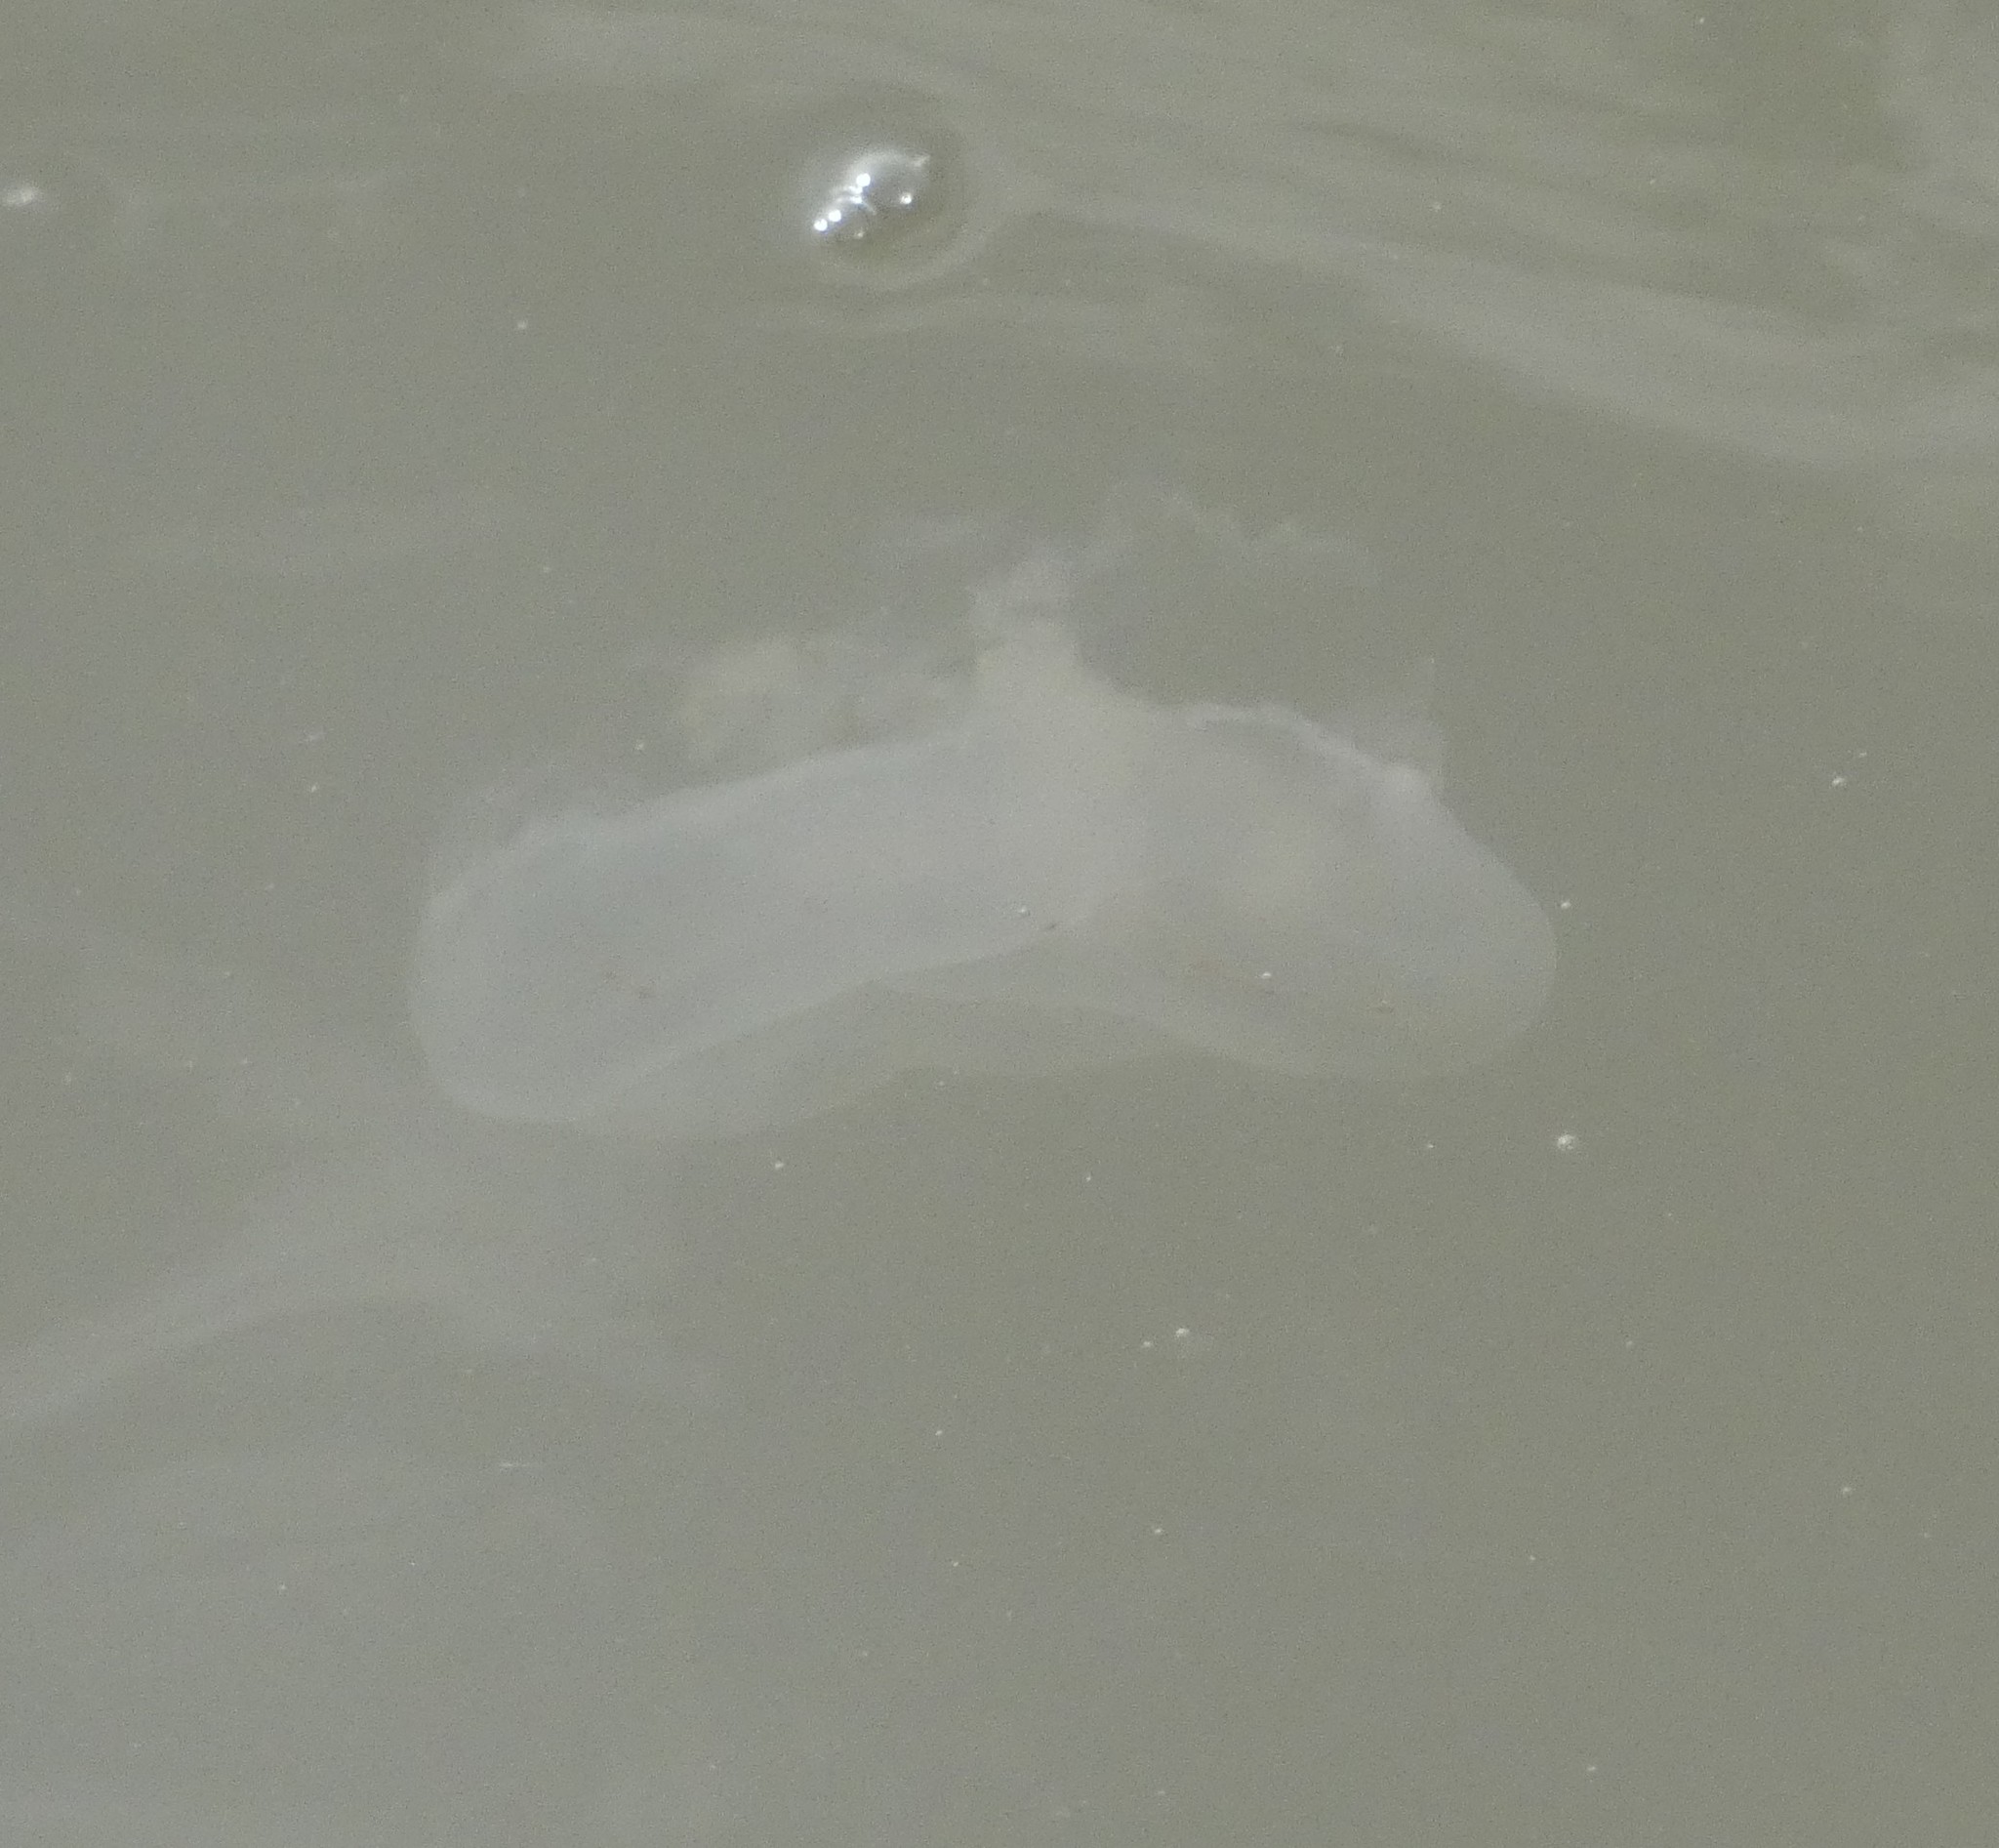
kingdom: Animalia
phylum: Cnidaria
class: Scyphozoa
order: Semaeostomeae
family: Ulmaridae
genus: Aurelia
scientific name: Aurelia aurita
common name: Moon jellyfish
